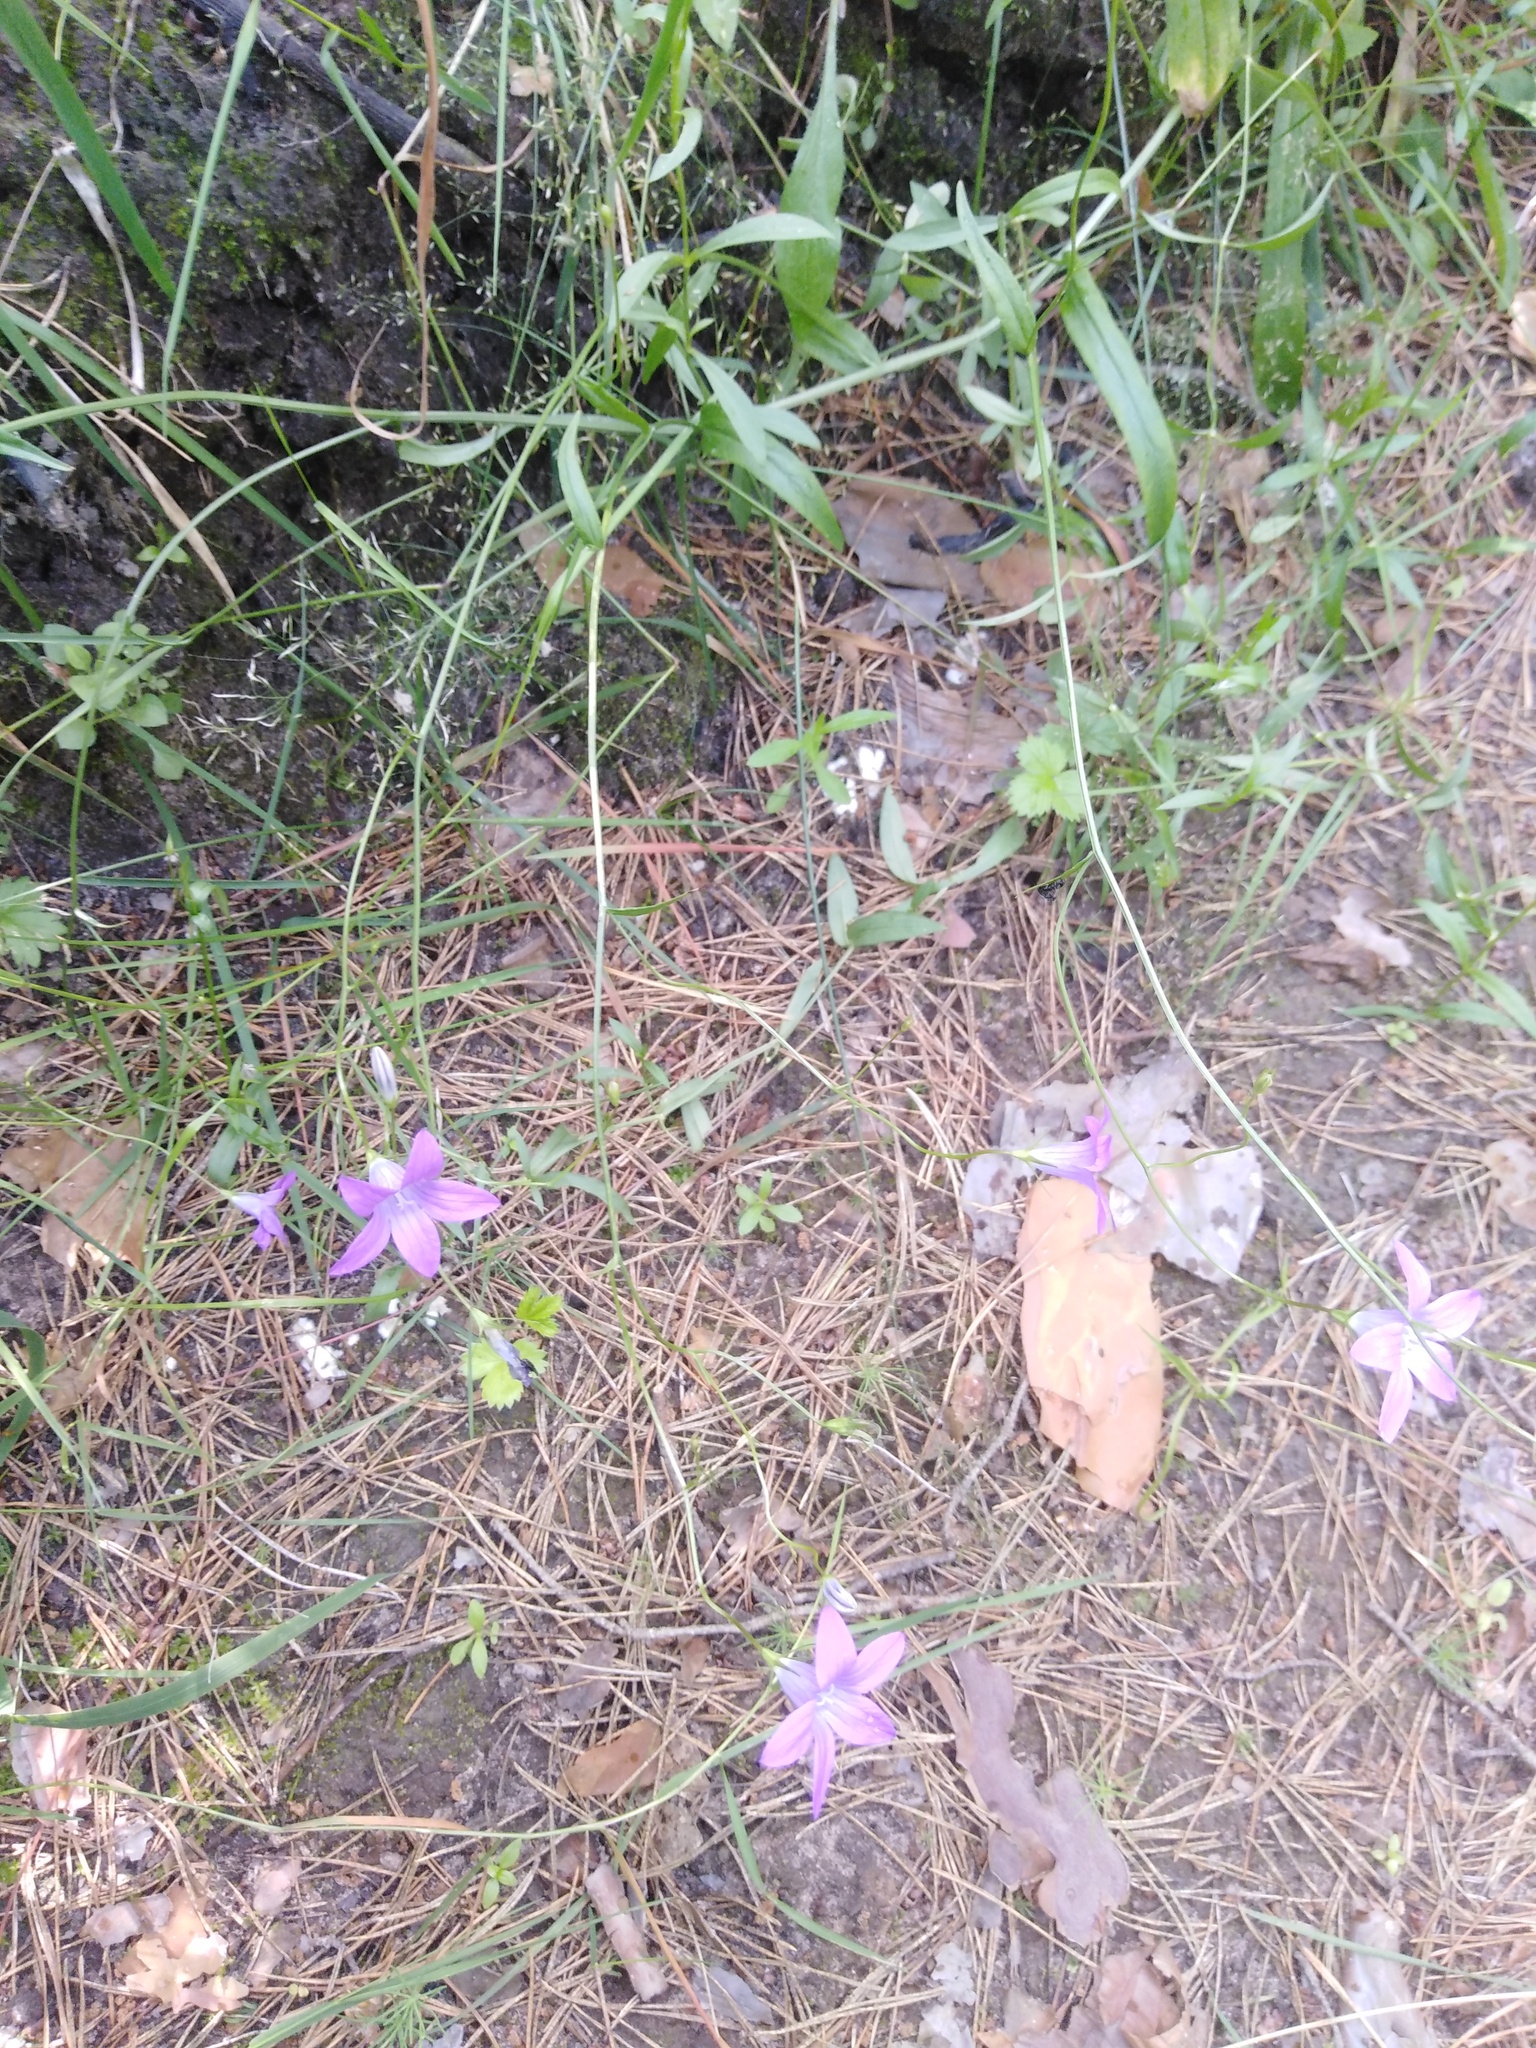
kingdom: Plantae
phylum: Tracheophyta
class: Magnoliopsida
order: Asterales
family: Campanulaceae
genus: Campanula
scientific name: Campanula patula
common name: Spreading bellflower
